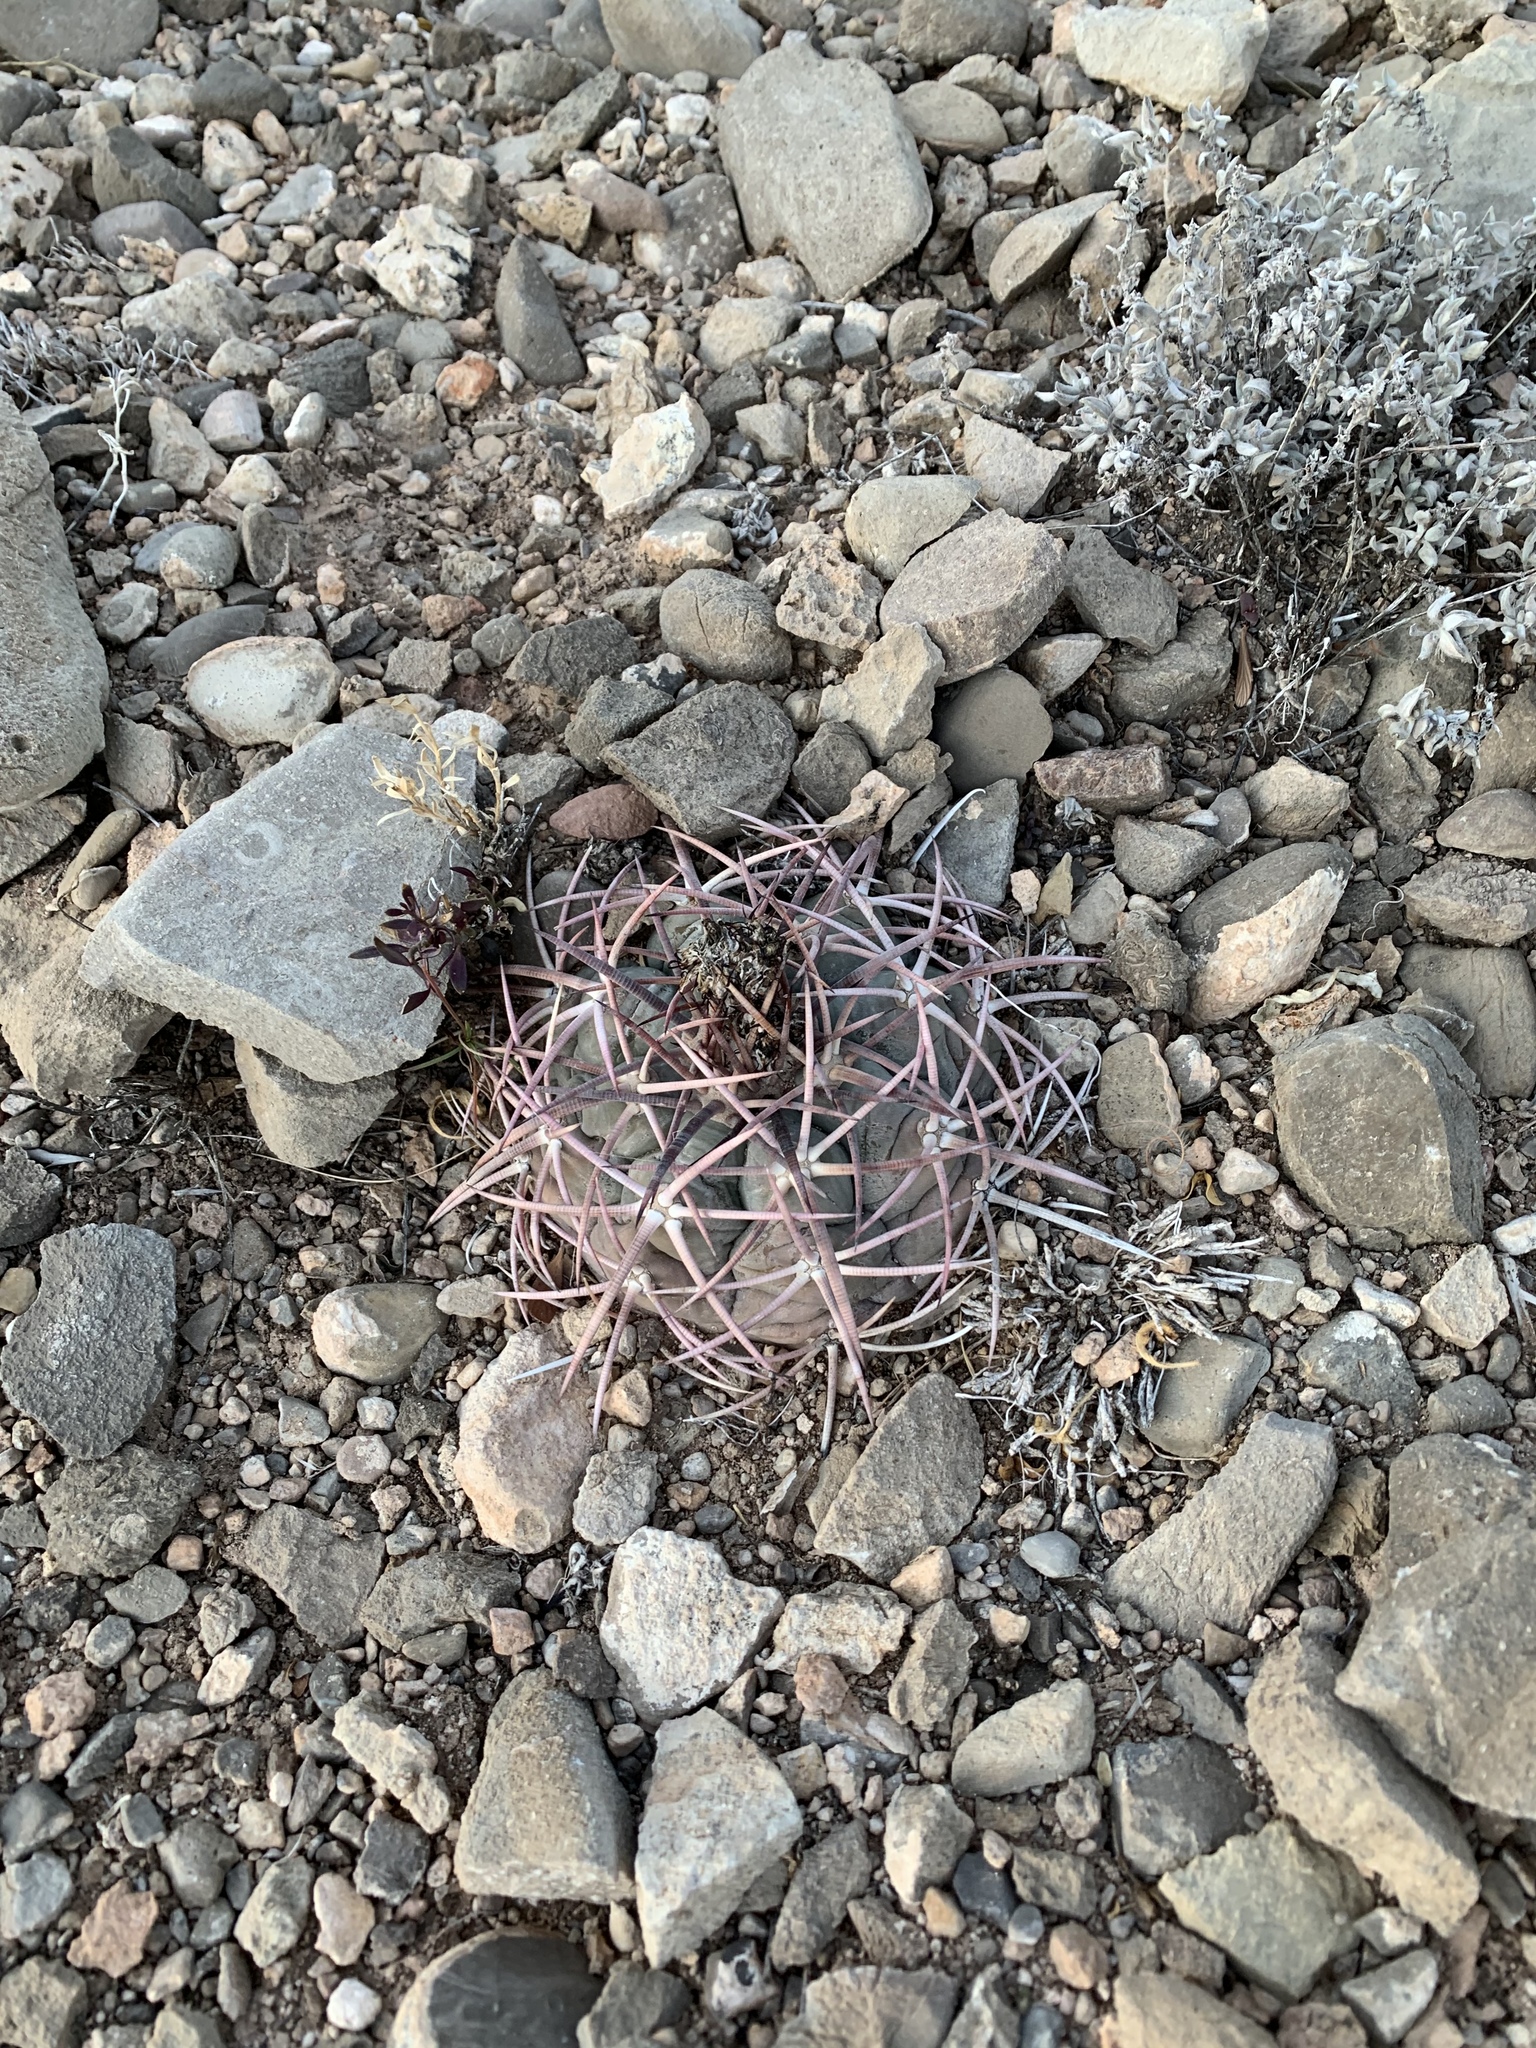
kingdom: Plantae
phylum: Tracheophyta
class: Magnoliopsida
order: Caryophyllales
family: Cactaceae
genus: Echinocactus
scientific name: Echinocactus horizonthalonius
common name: Devilshead
